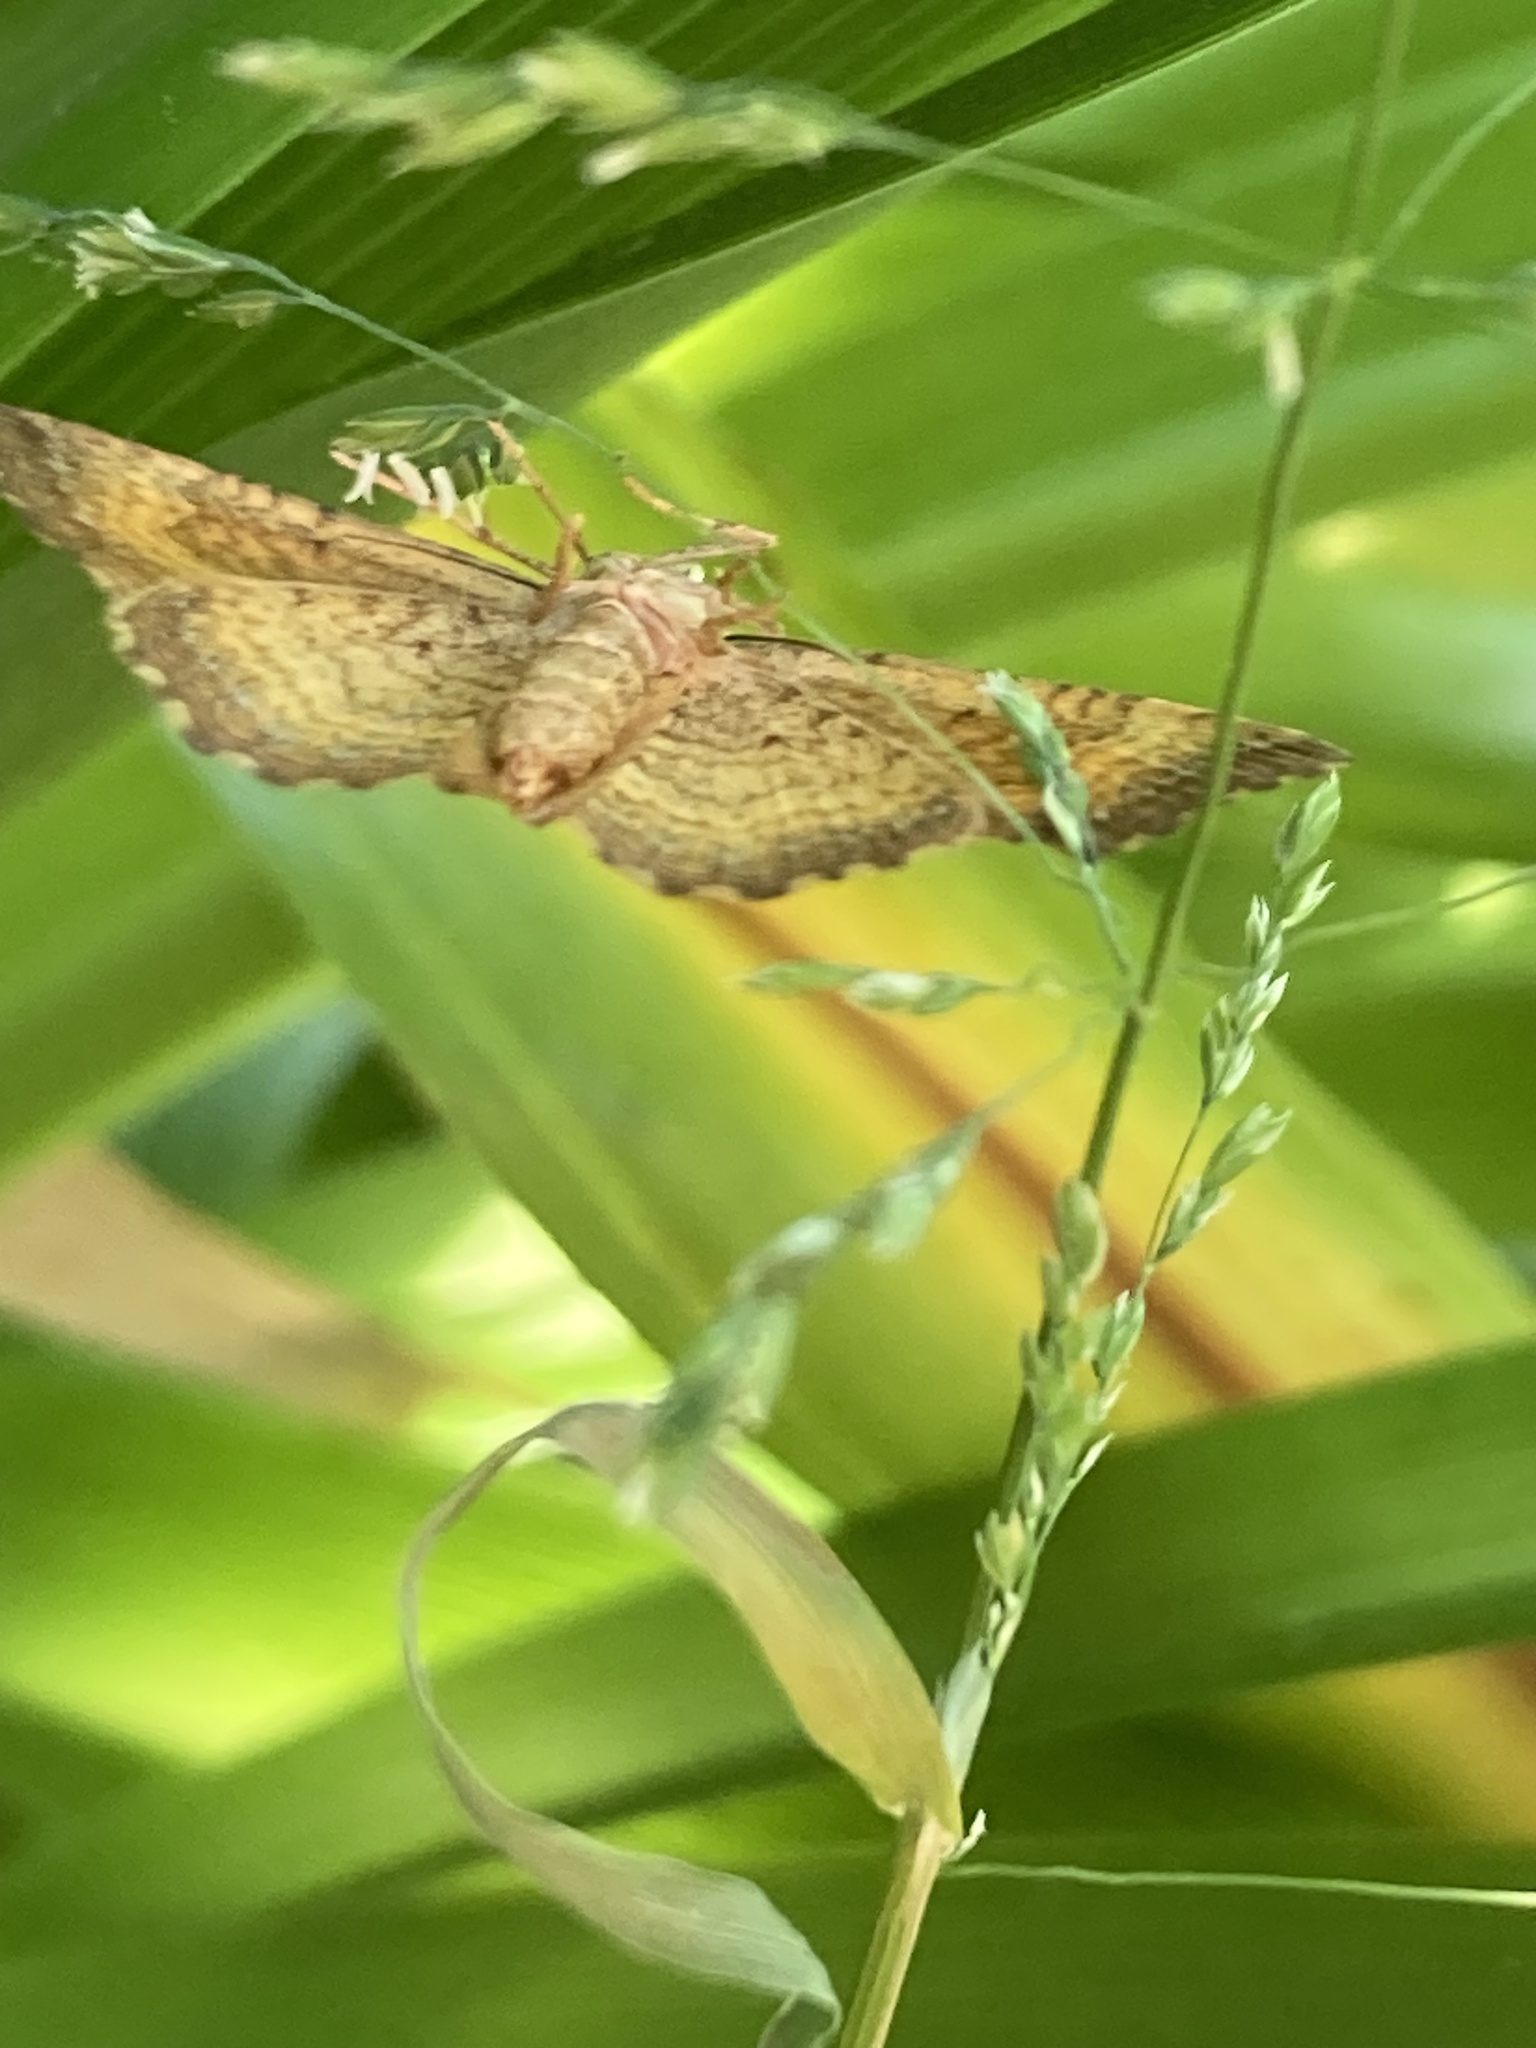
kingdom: Animalia
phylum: Arthropoda
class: Insecta
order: Lepidoptera
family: Geometridae
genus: Camptogramma
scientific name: Camptogramma bilineata
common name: Yellow shell
